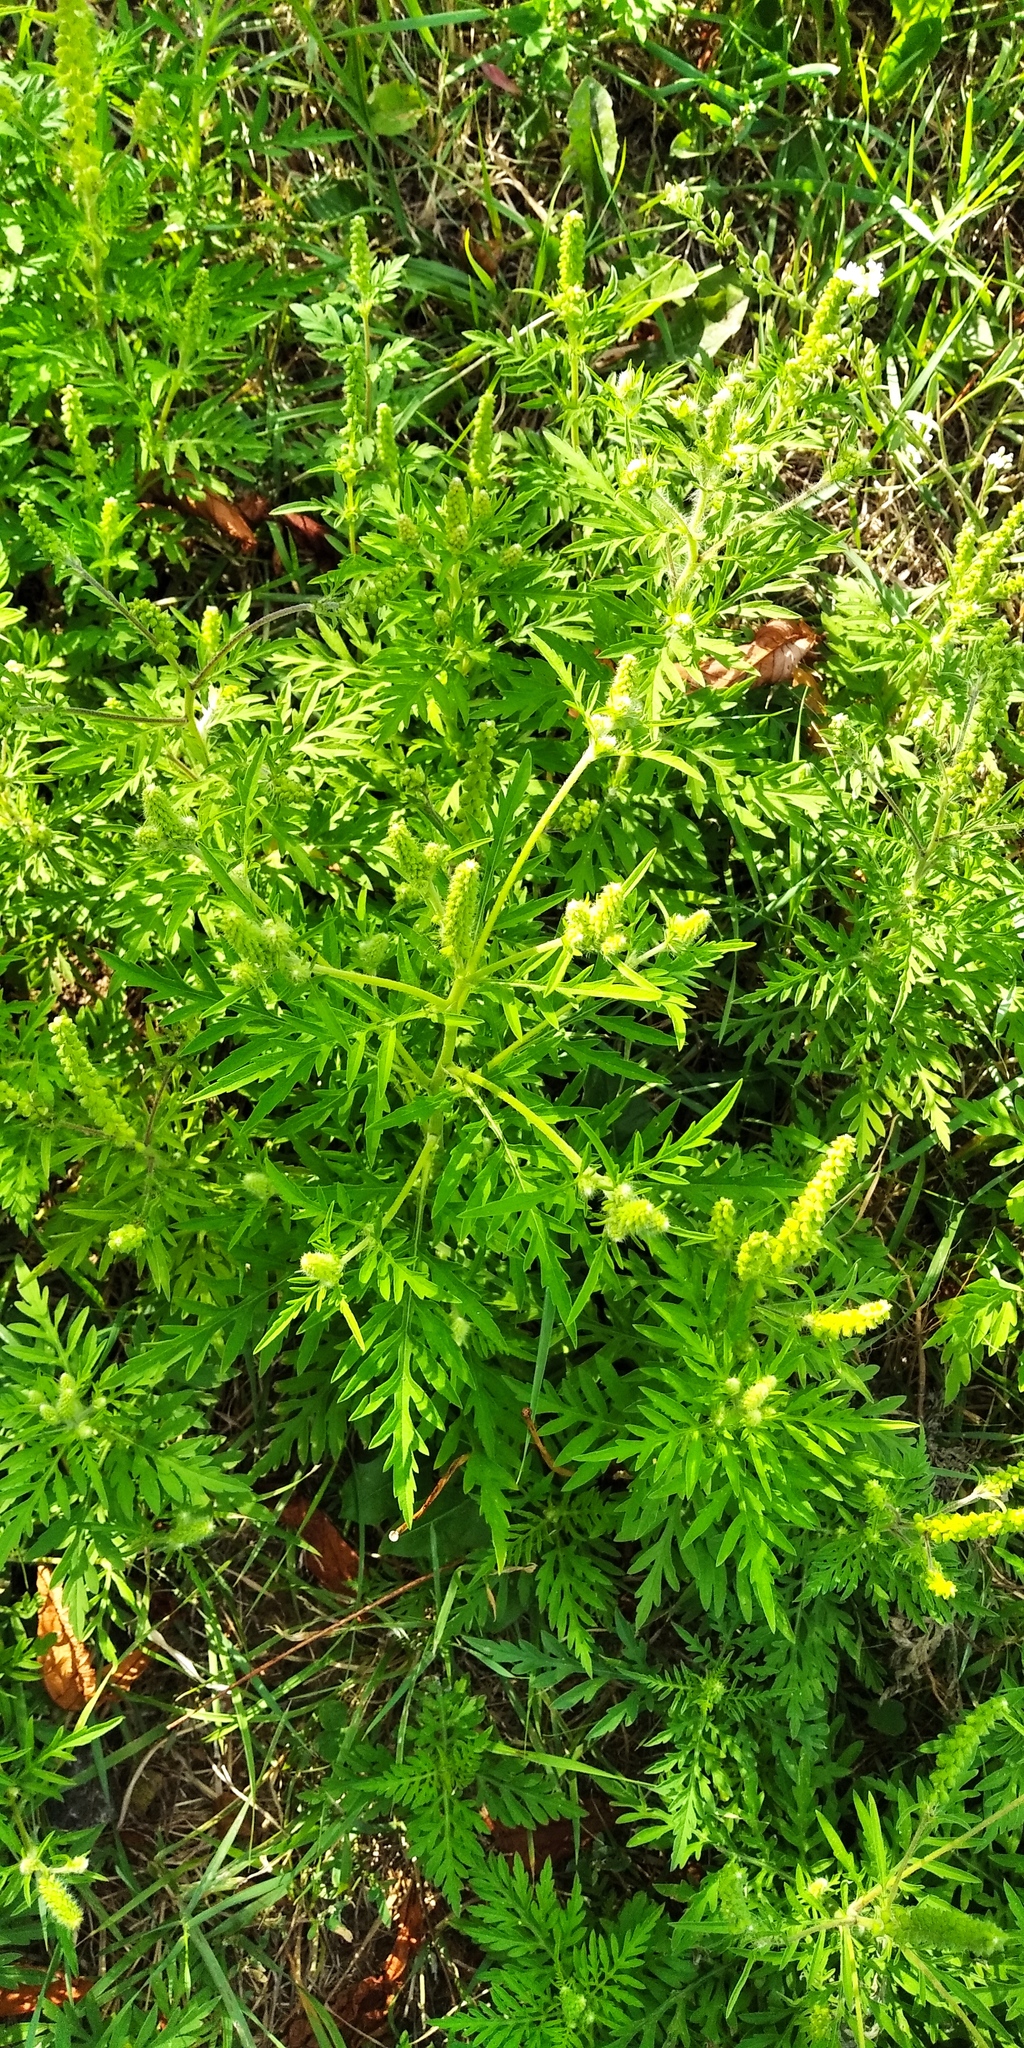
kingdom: Plantae
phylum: Tracheophyta
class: Magnoliopsida
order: Asterales
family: Asteraceae
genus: Ambrosia
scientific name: Ambrosia artemisiifolia
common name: Annual ragweed
